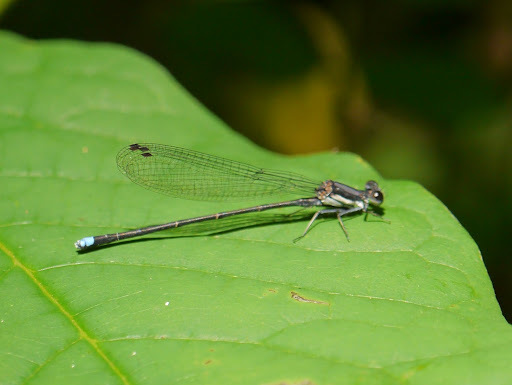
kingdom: Animalia
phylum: Arthropoda
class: Insecta
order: Odonata
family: Coenagrionidae
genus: Argia
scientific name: Argia tibialis
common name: Blue-tipped dancer
